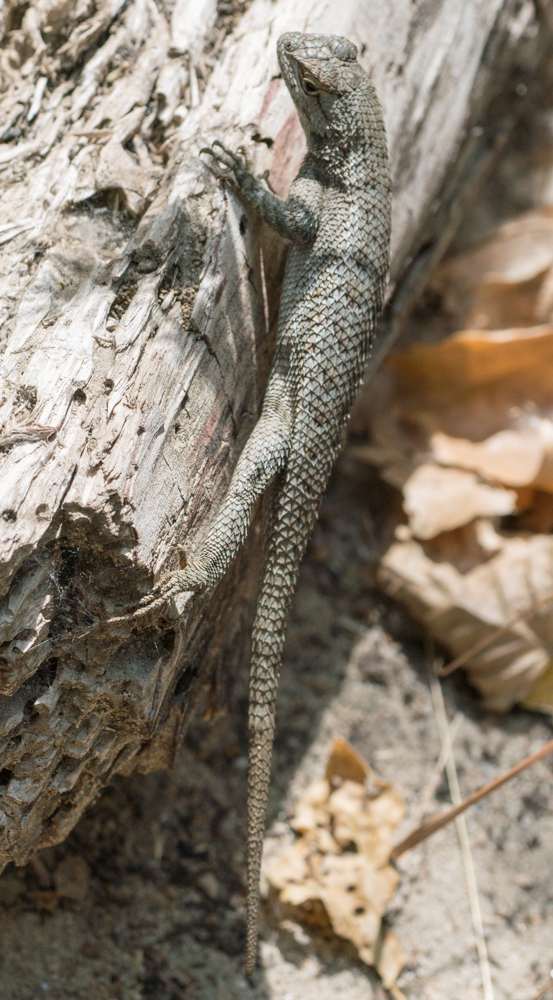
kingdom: Animalia
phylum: Chordata
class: Squamata
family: Phrynosomatidae
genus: Sceloporus
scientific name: Sceloporus occidentalis
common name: Western fence lizard
